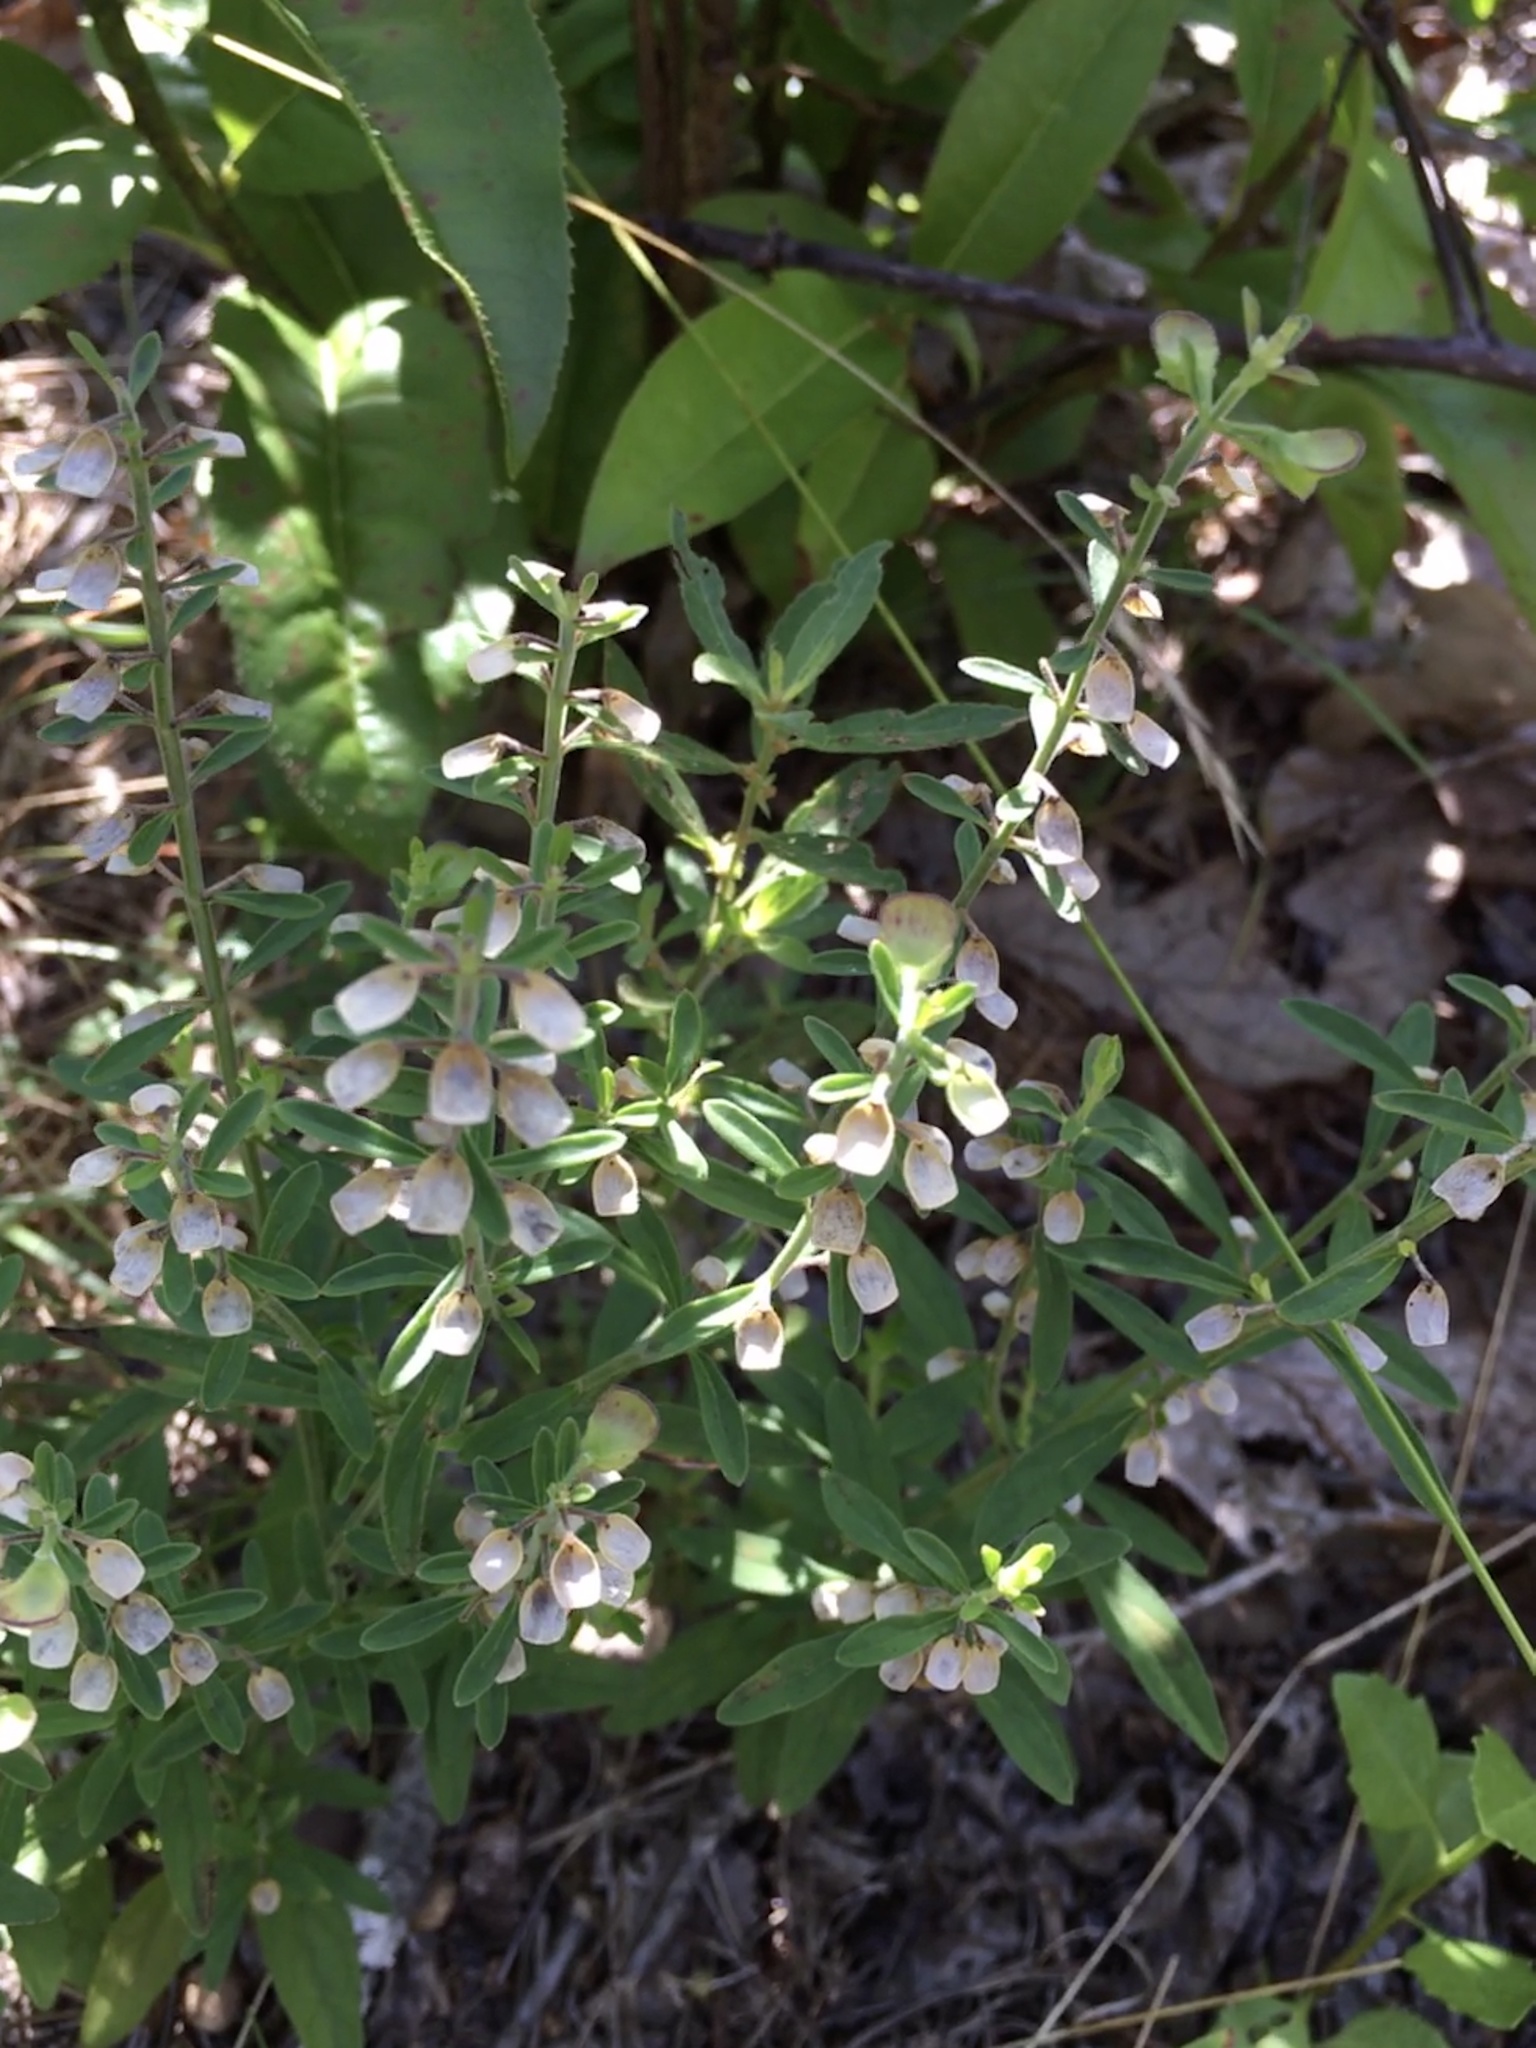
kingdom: Plantae
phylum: Tracheophyta
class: Magnoliopsida
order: Lamiales
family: Lamiaceae
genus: Scutellaria
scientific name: Scutellaria integrifolia
